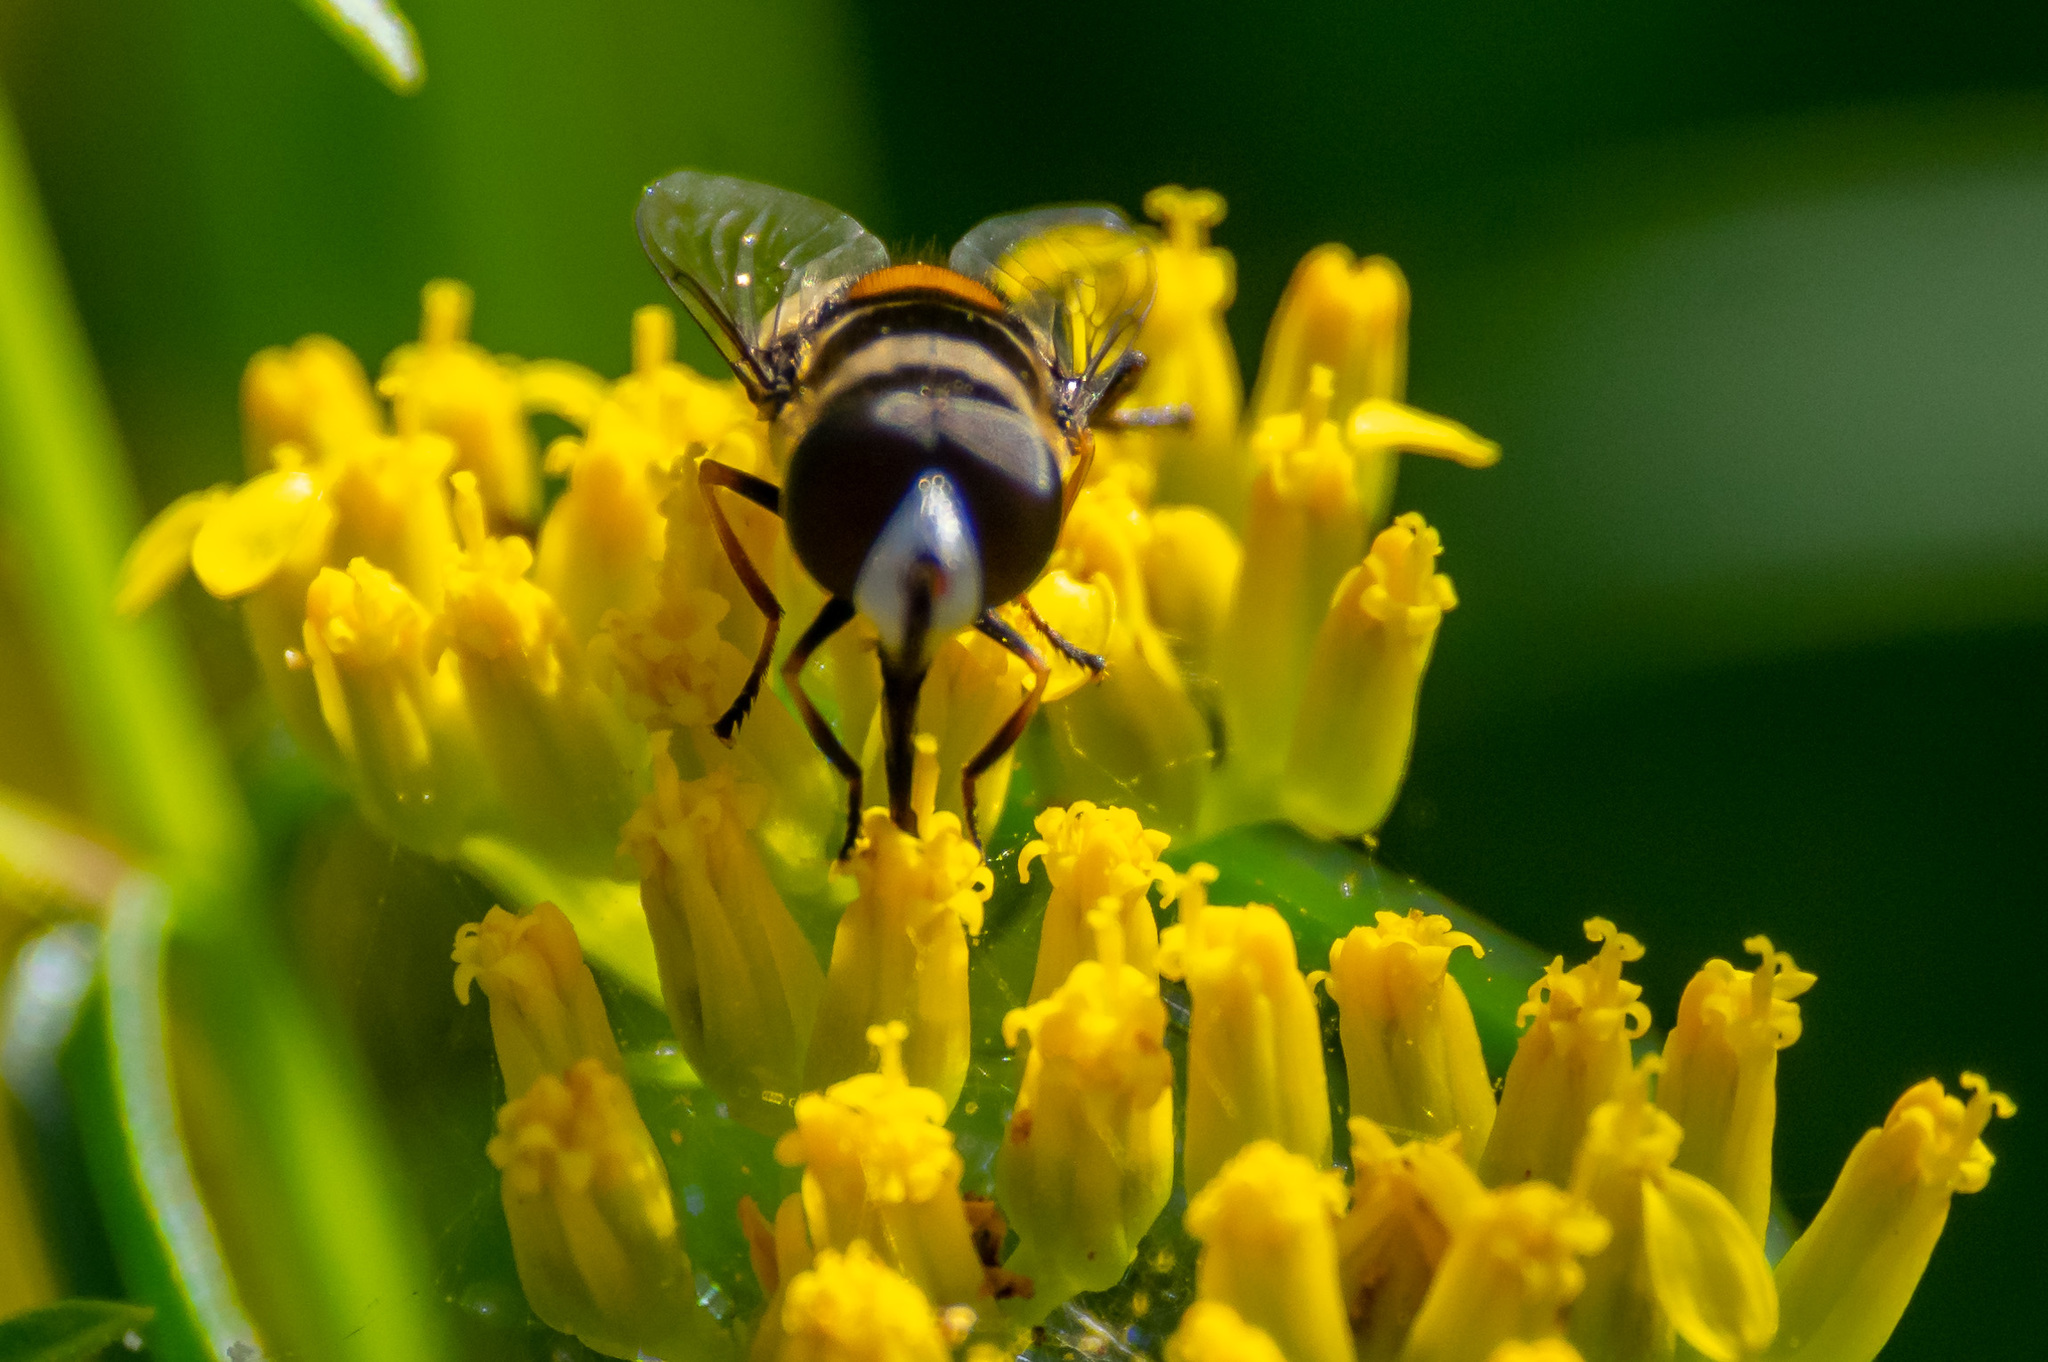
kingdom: Animalia
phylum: Arthropoda
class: Insecta
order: Diptera
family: Syrphidae
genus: Palpada
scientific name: Palpada albifrons
